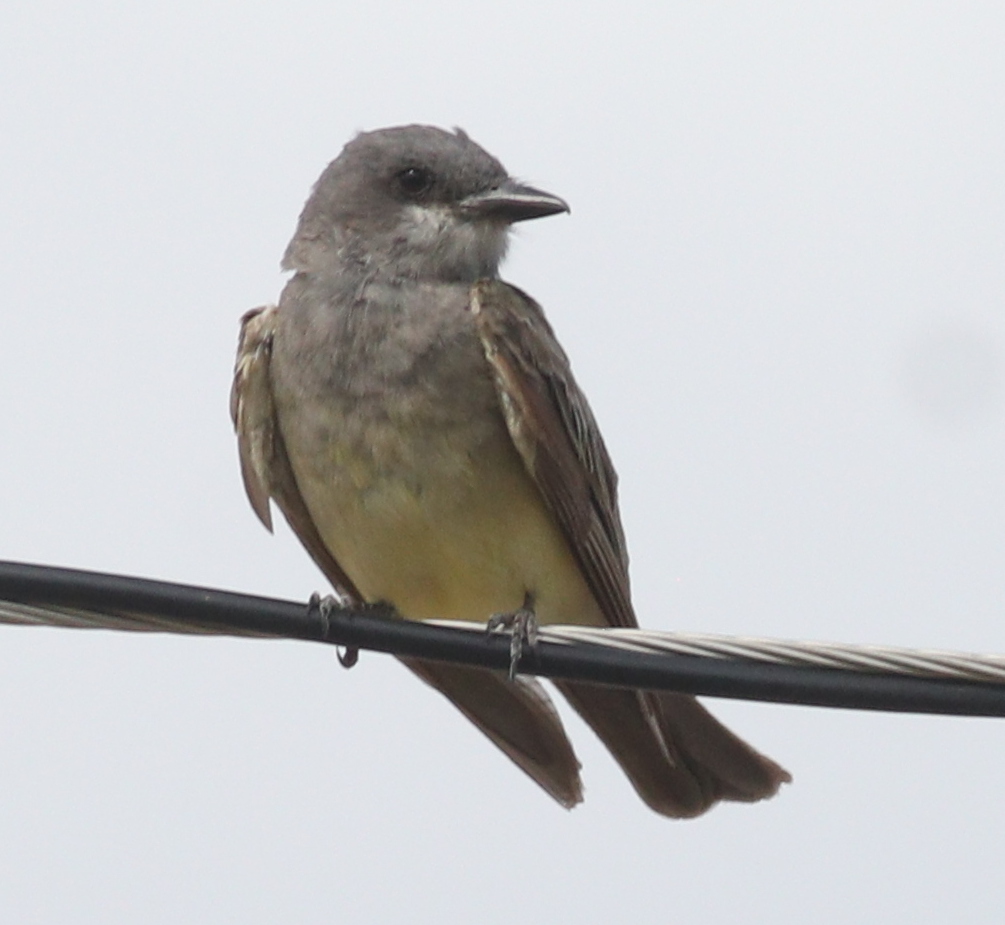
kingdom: Animalia
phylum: Chordata
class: Aves
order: Passeriformes
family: Tyrannidae
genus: Tyrannus
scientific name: Tyrannus vociferans
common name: Cassin's kingbird
